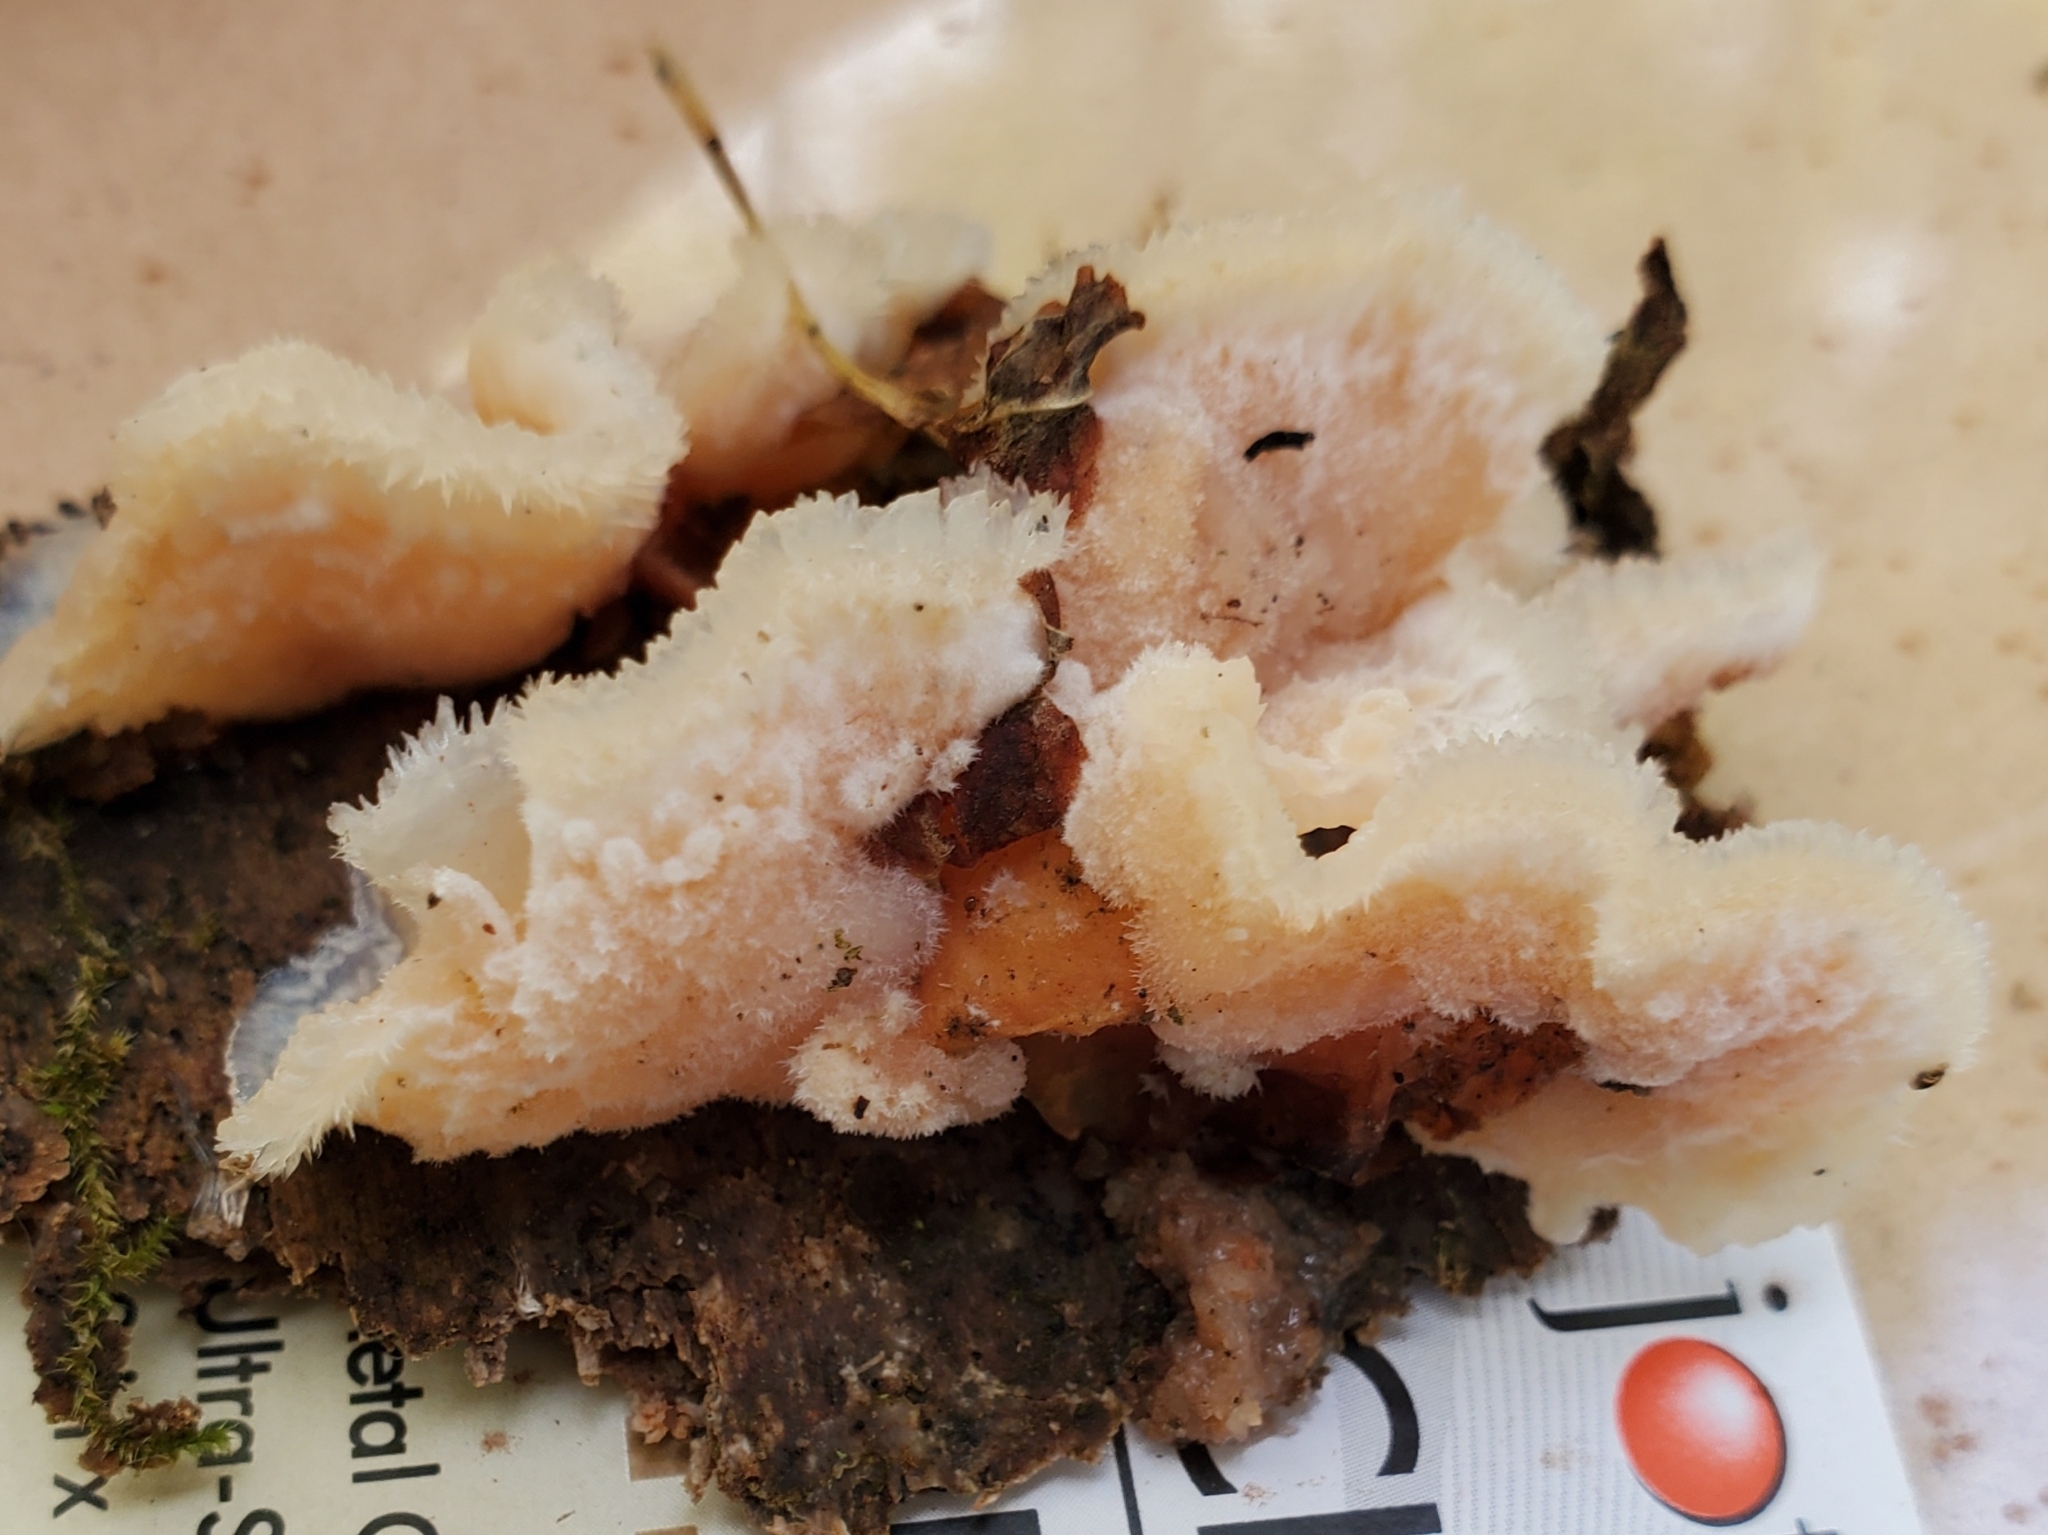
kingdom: Fungi
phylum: Basidiomycota
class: Agaricomycetes
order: Polyporales
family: Meruliaceae
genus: Phlebia
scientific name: Phlebia tremellosa
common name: Jelly rot
